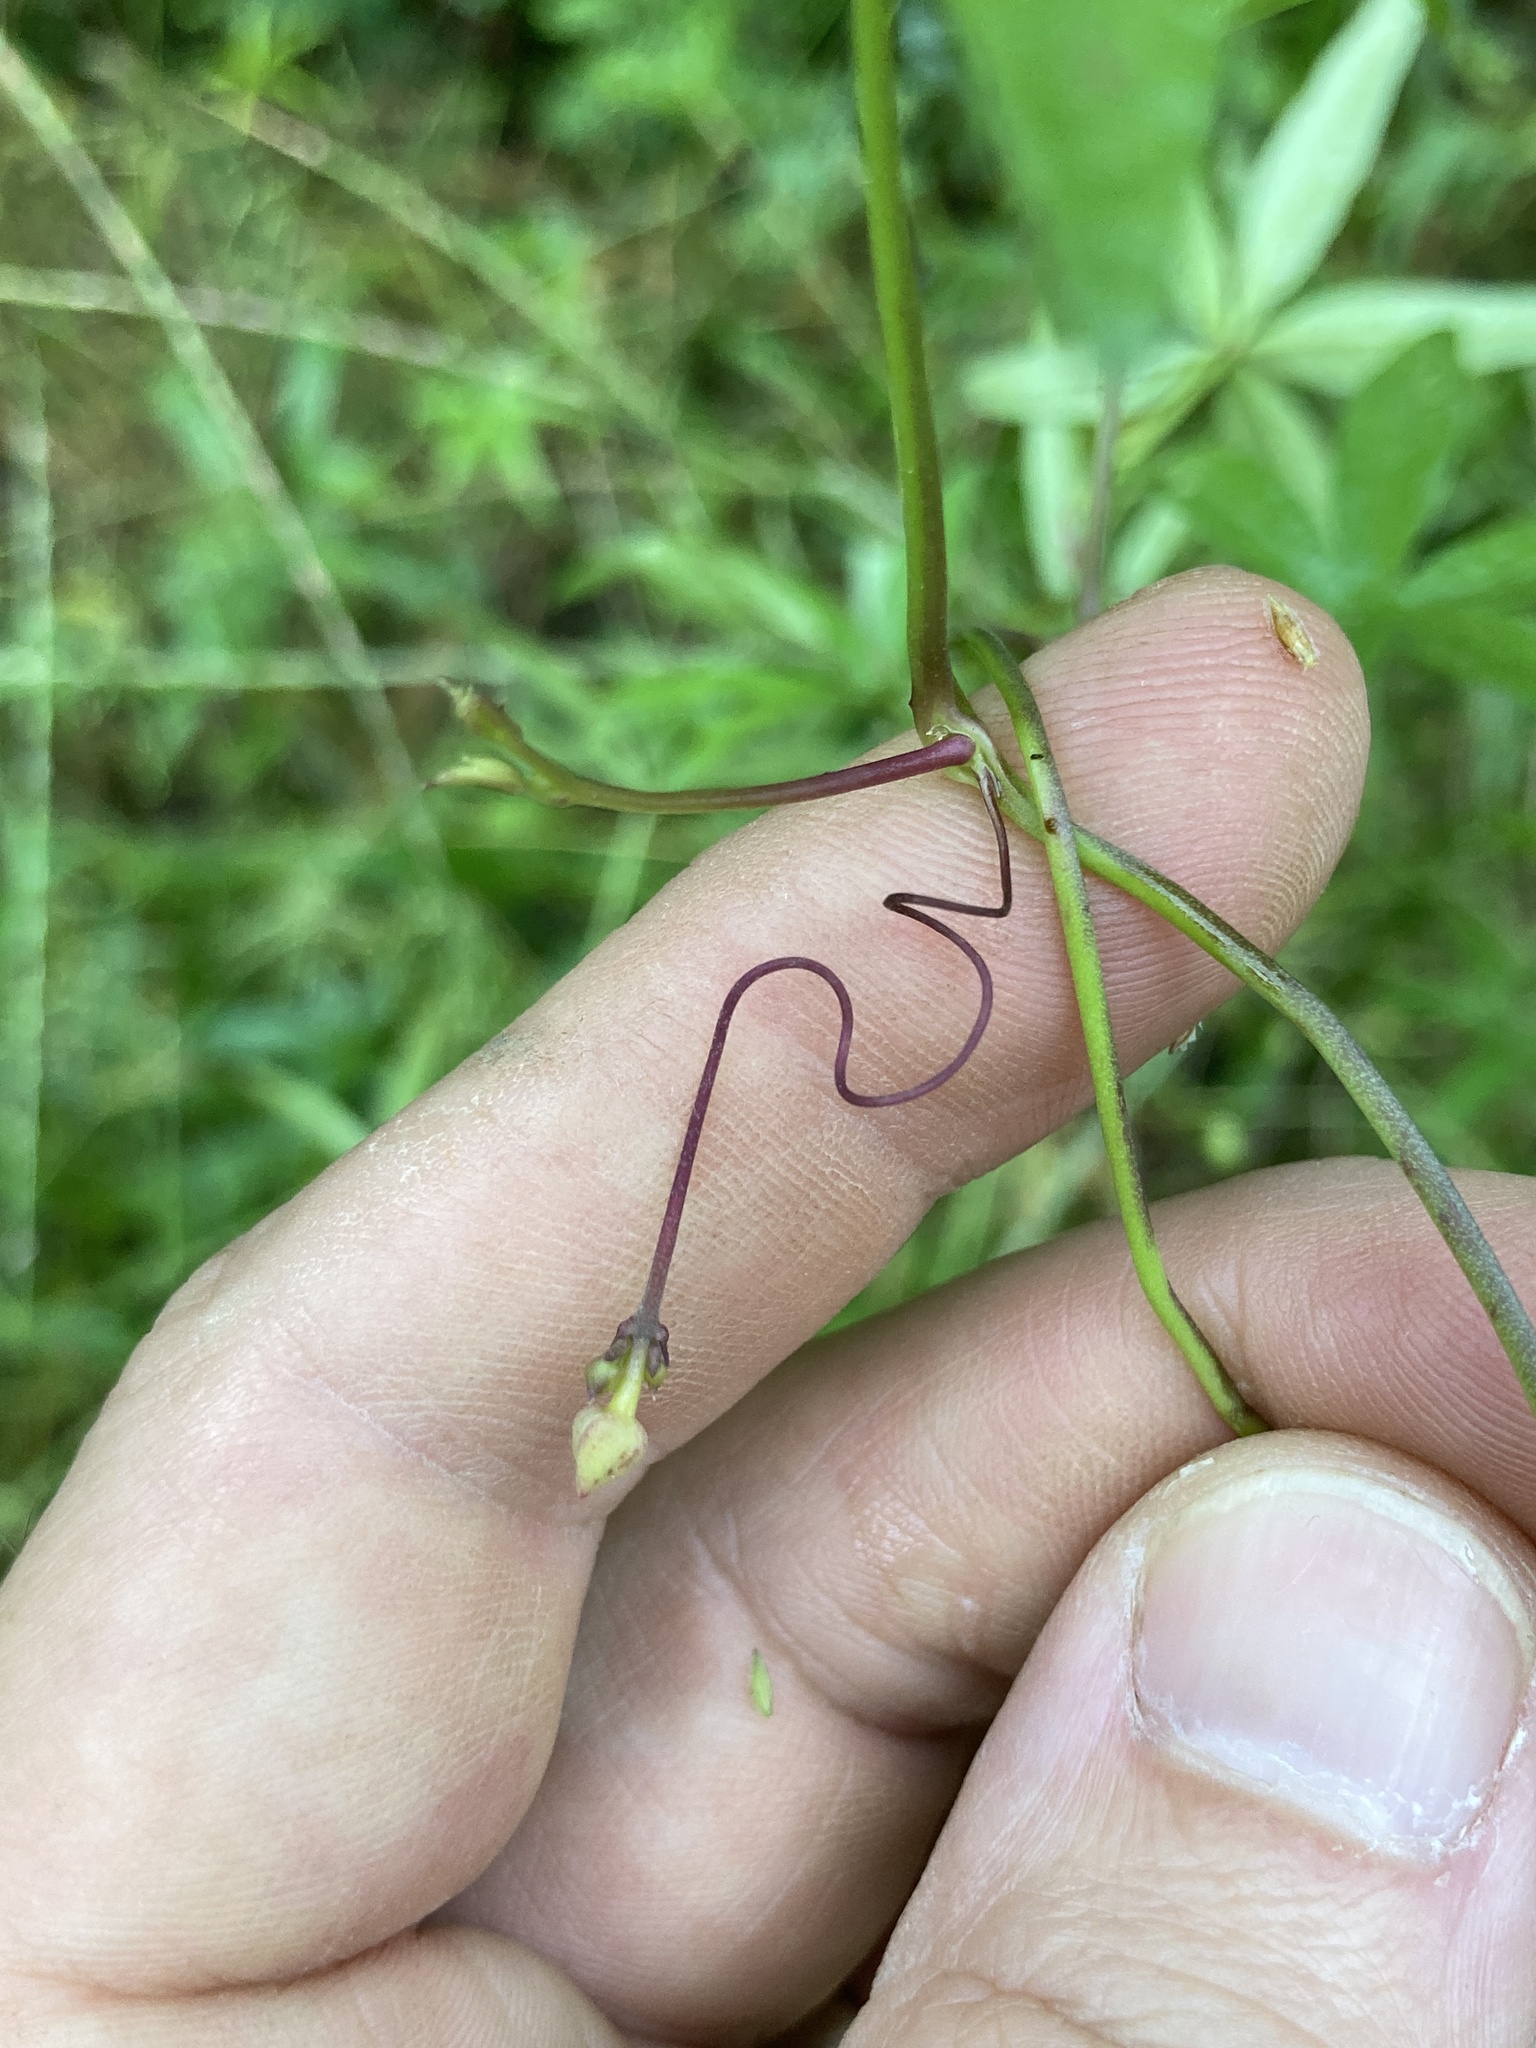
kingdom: Plantae
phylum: Tracheophyta
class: Magnoliopsida
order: Solanales
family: Convolvulaceae
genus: Ipomoea
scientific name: Ipomoea heptaphylla
